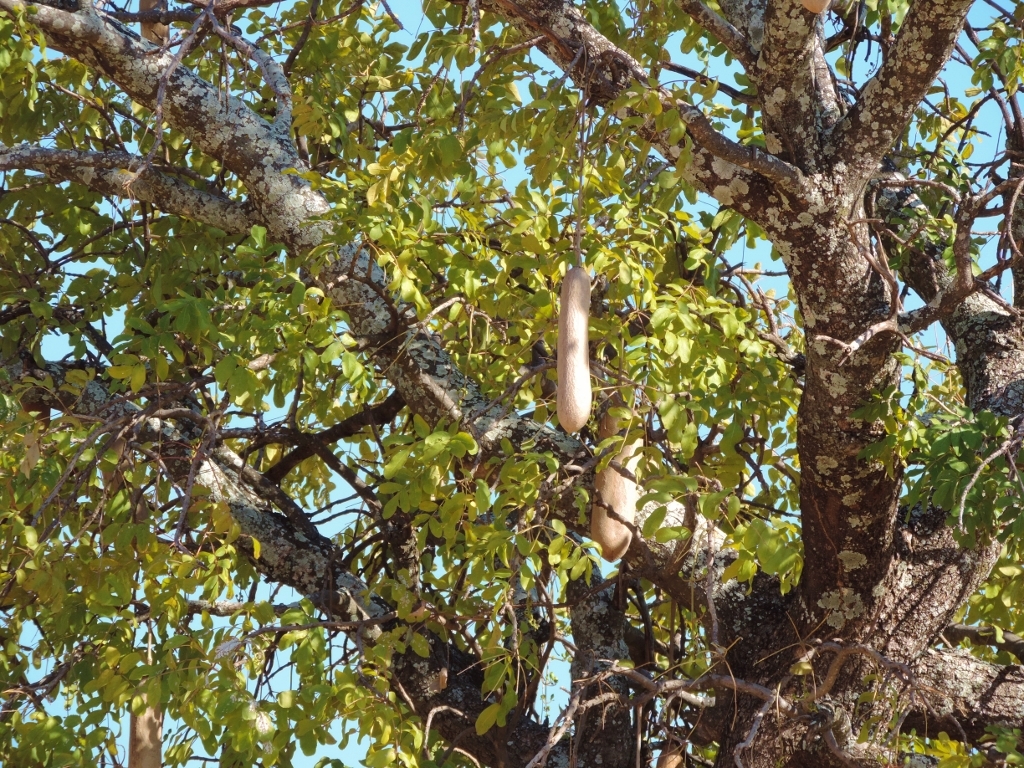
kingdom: Plantae
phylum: Tracheophyta
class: Magnoliopsida
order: Lamiales
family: Bignoniaceae
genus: Kigelia
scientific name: Kigelia africana
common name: Sausage tree
